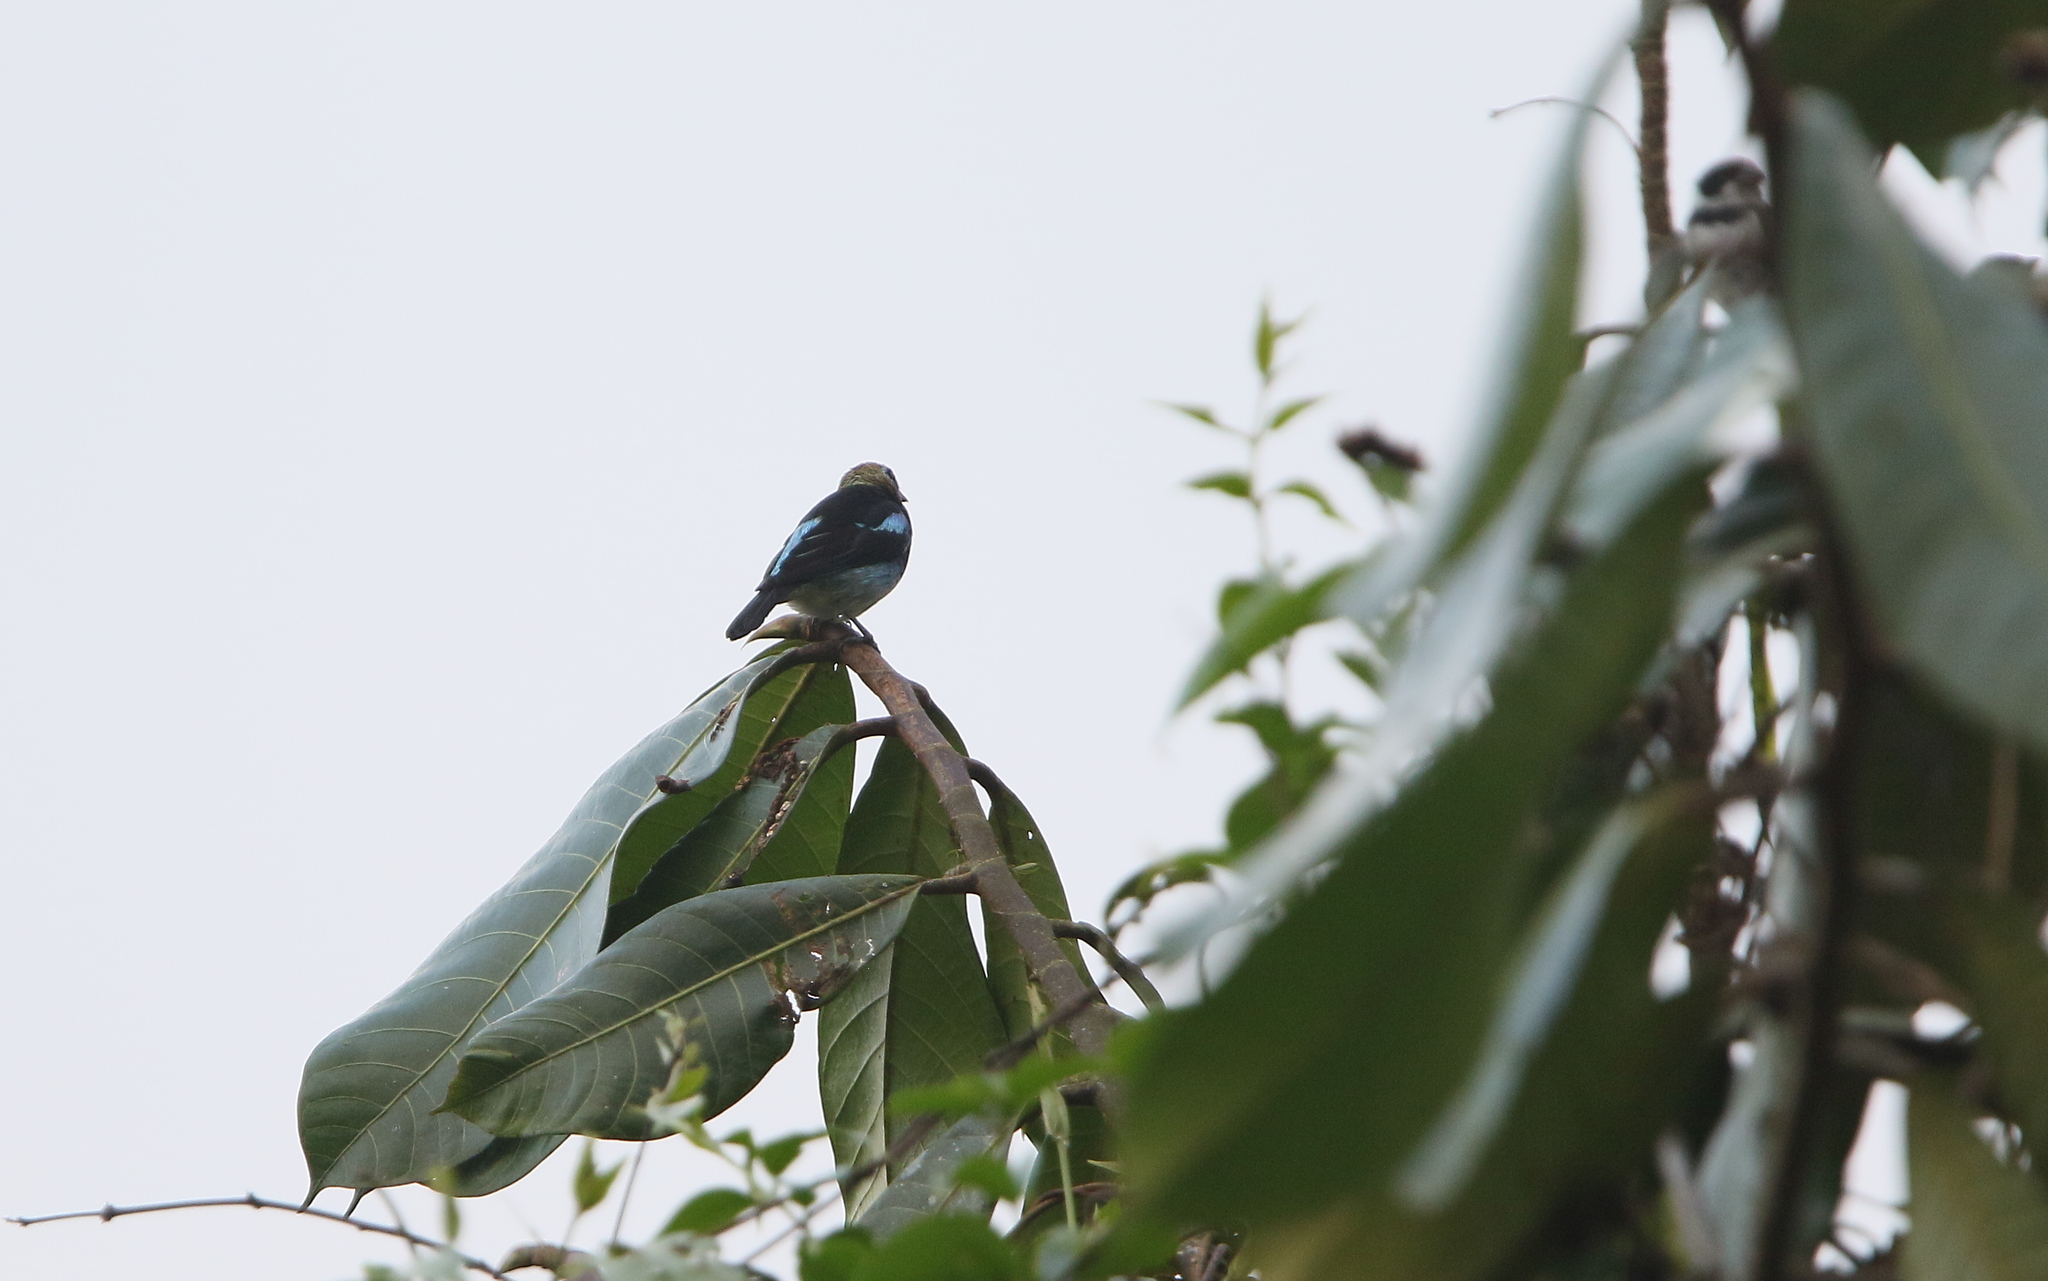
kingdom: Animalia
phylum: Chordata
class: Aves
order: Passeriformes
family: Thraupidae
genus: Stilpnia
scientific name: Stilpnia larvata
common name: Golden-hooded tanager
